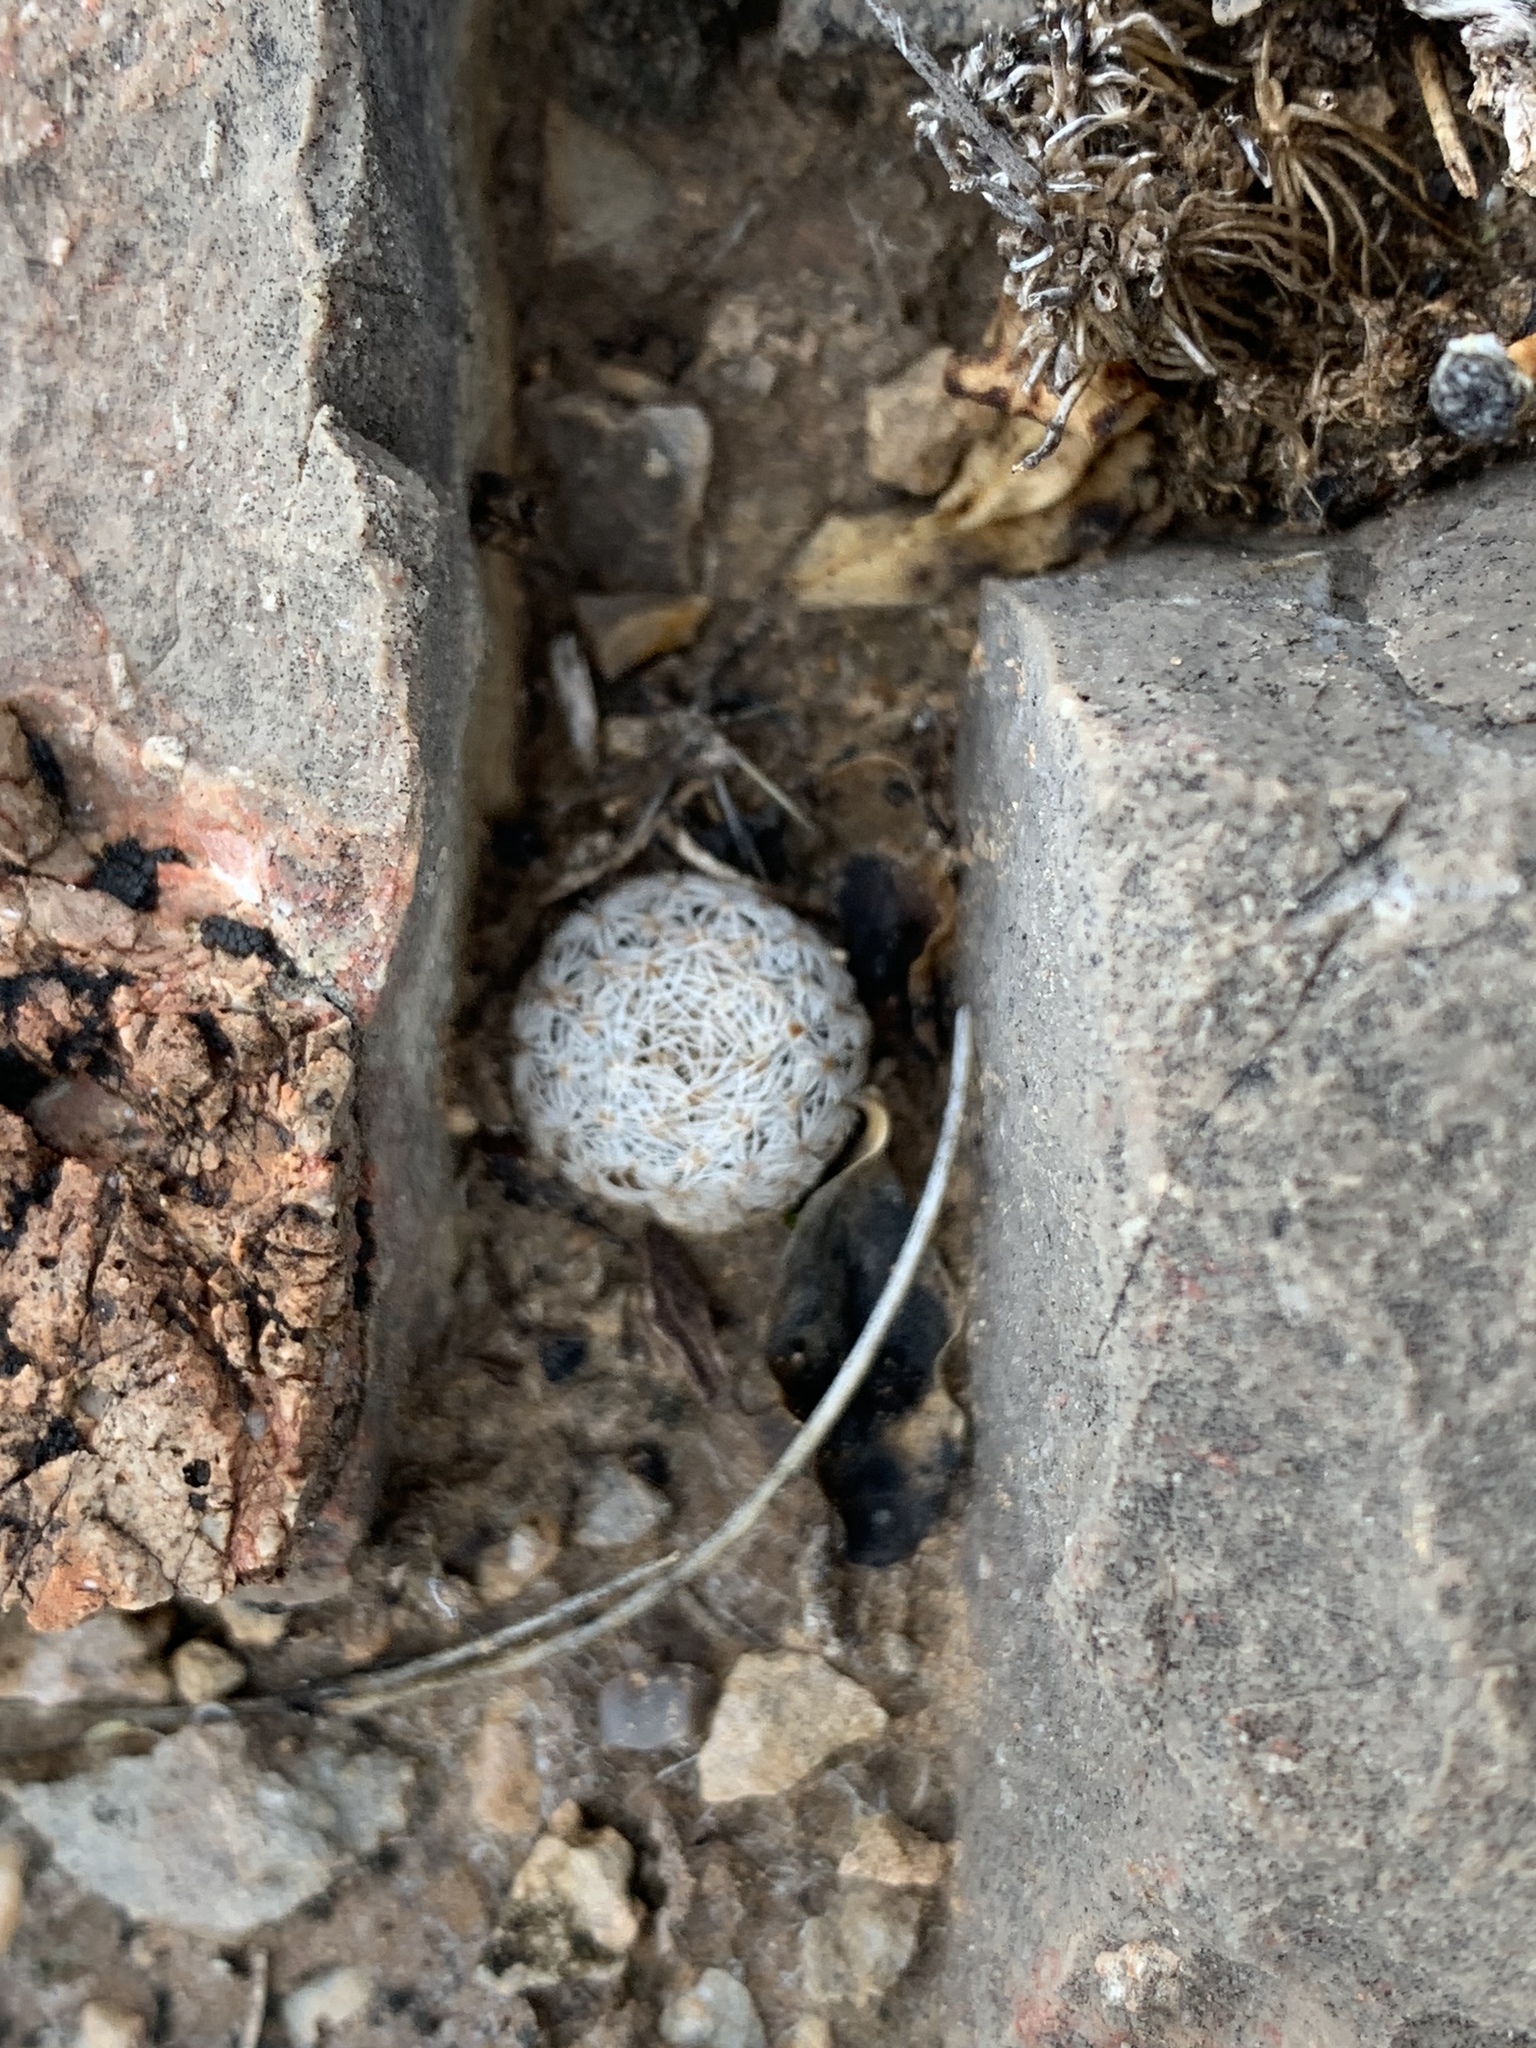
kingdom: Plantae
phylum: Tracheophyta
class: Magnoliopsida
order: Caryophyllales
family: Cactaceae
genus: Mammillaria
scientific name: Mammillaria lasiacantha
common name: Lace-spine nipple cactus
